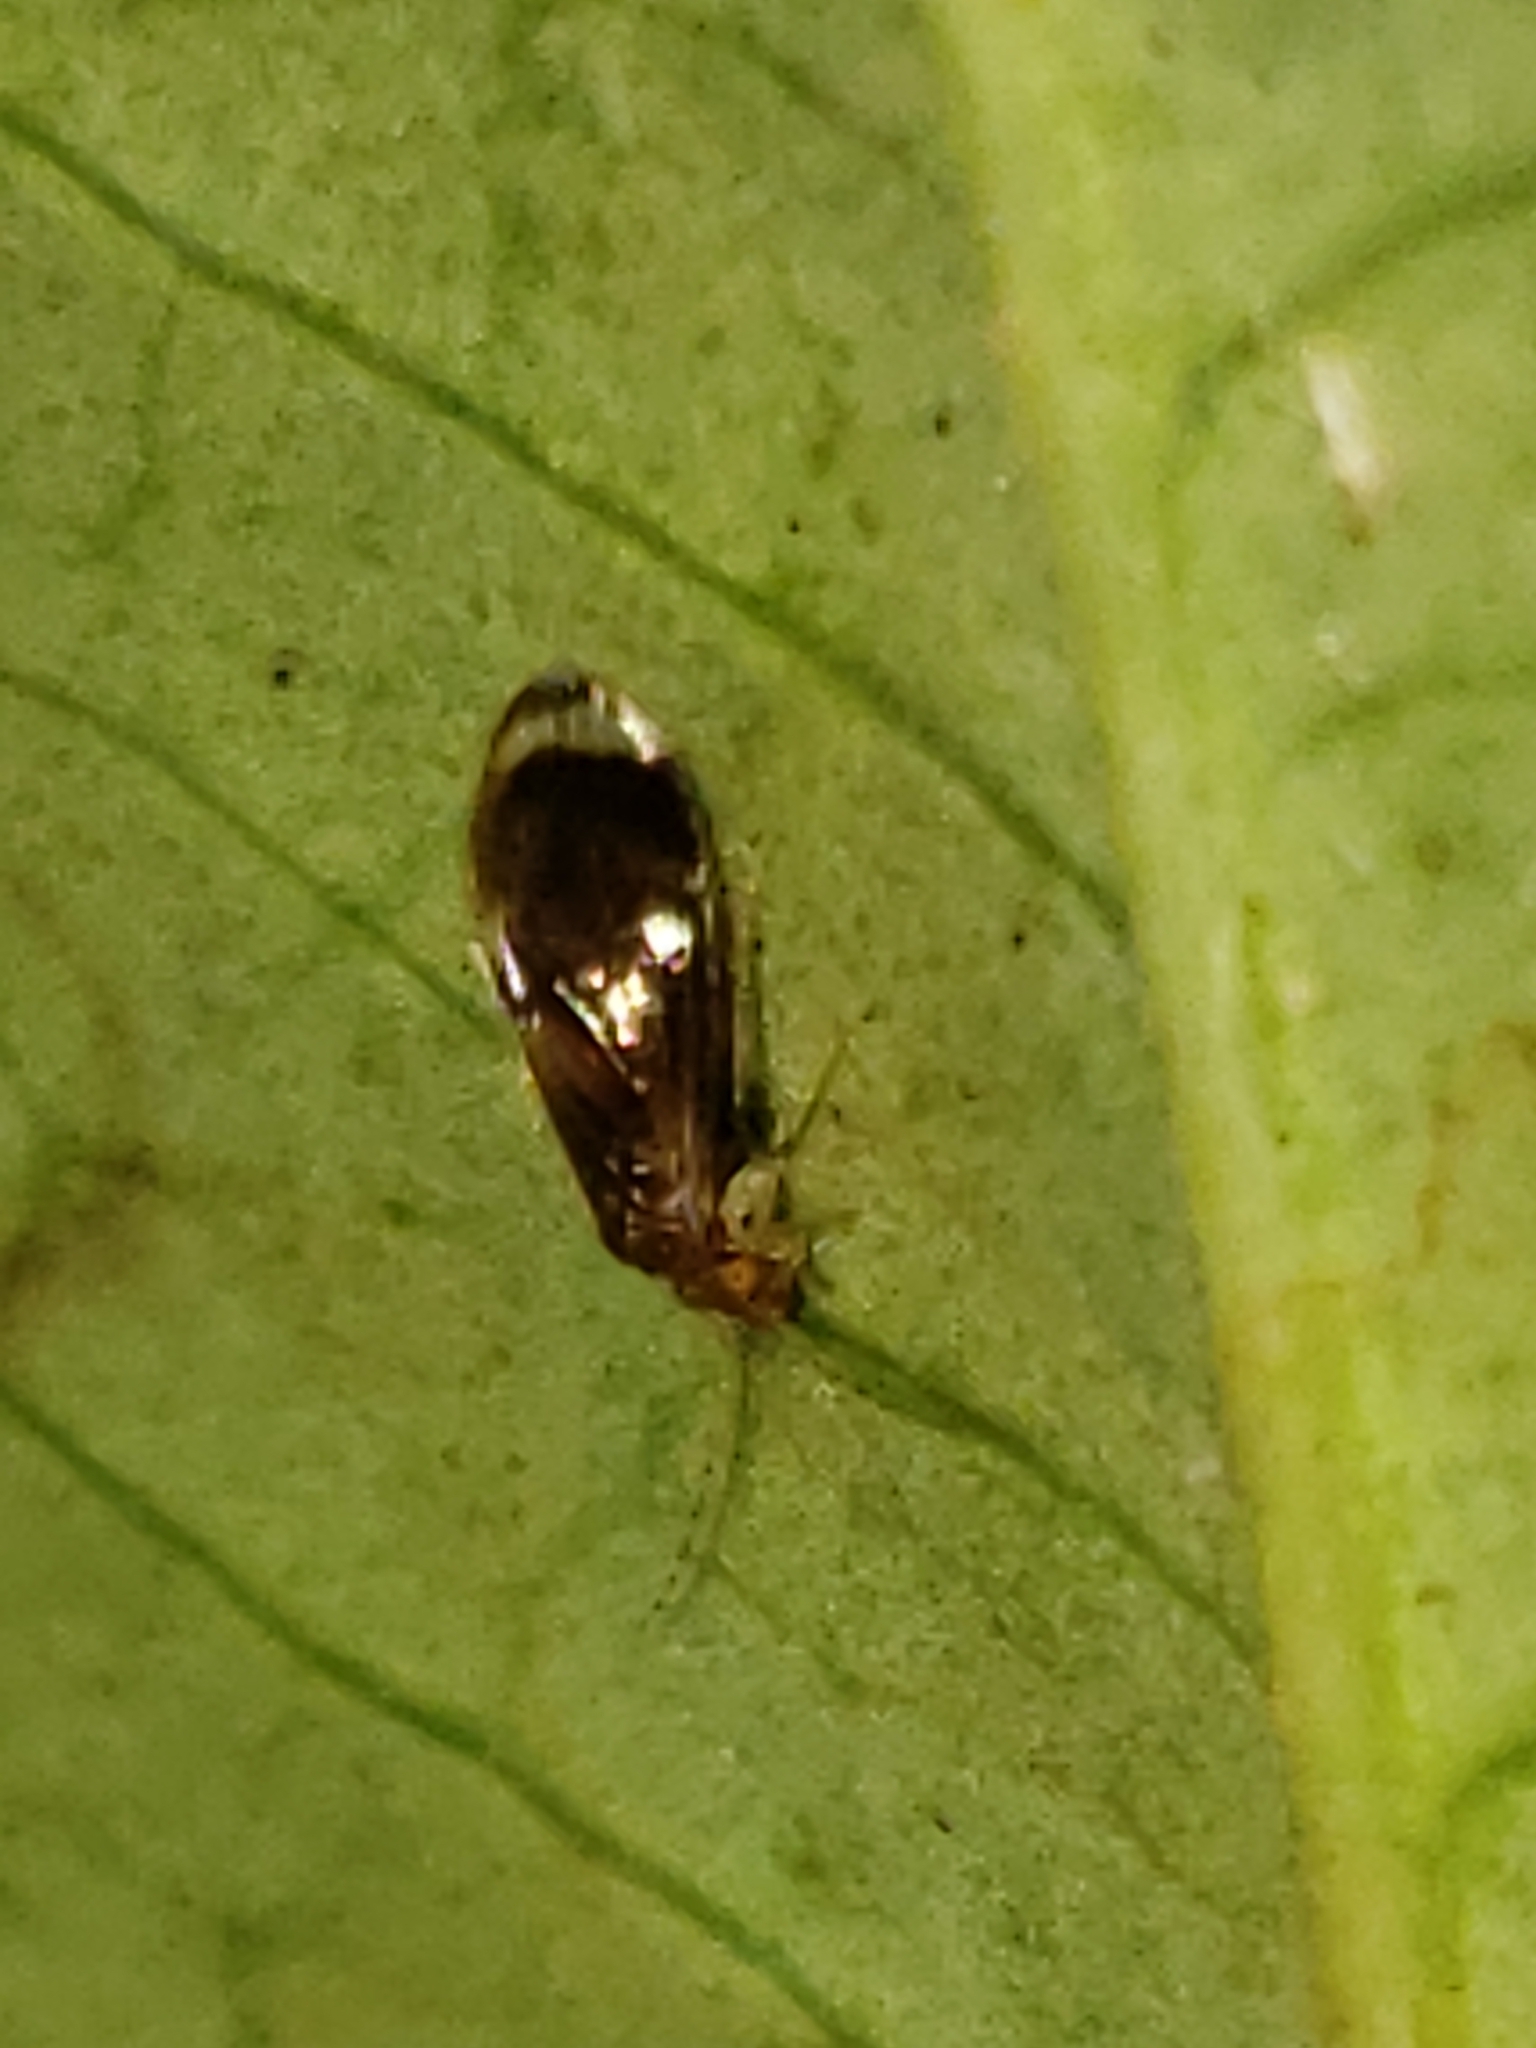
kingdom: Animalia
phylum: Arthropoda
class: Insecta
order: Psocodea
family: Amphipsocidae
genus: Polypsocus
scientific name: Polypsocus corruptus
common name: Corrupt barklouse
